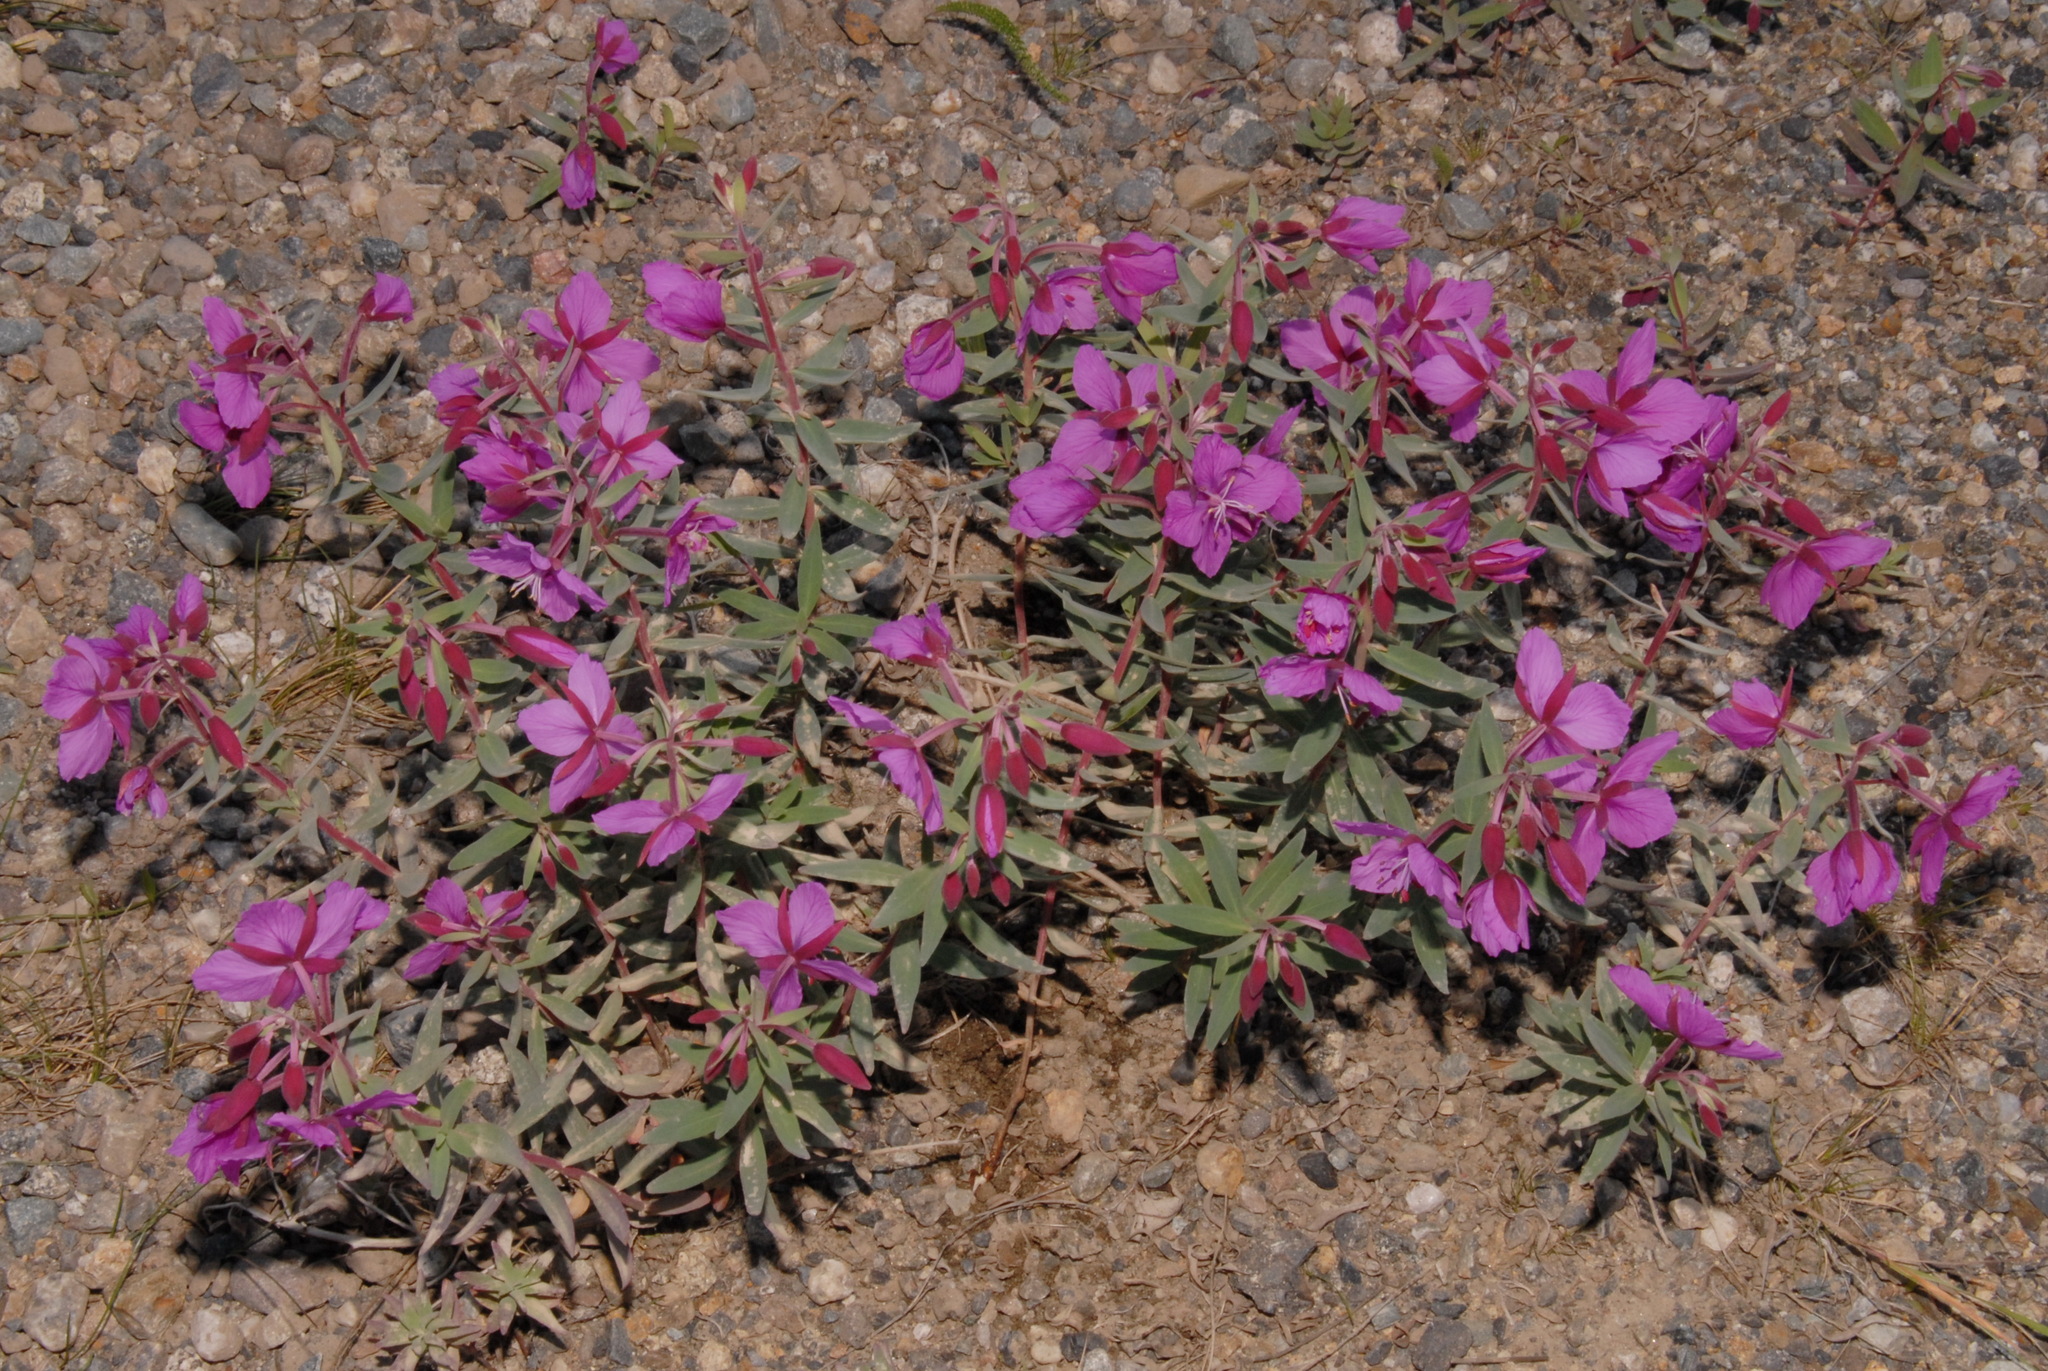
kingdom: Plantae
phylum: Tracheophyta
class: Magnoliopsida
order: Myrtales
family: Onagraceae
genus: Chamaenerion
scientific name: Chamaenerion latifolium
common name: Dwarf fireweed
